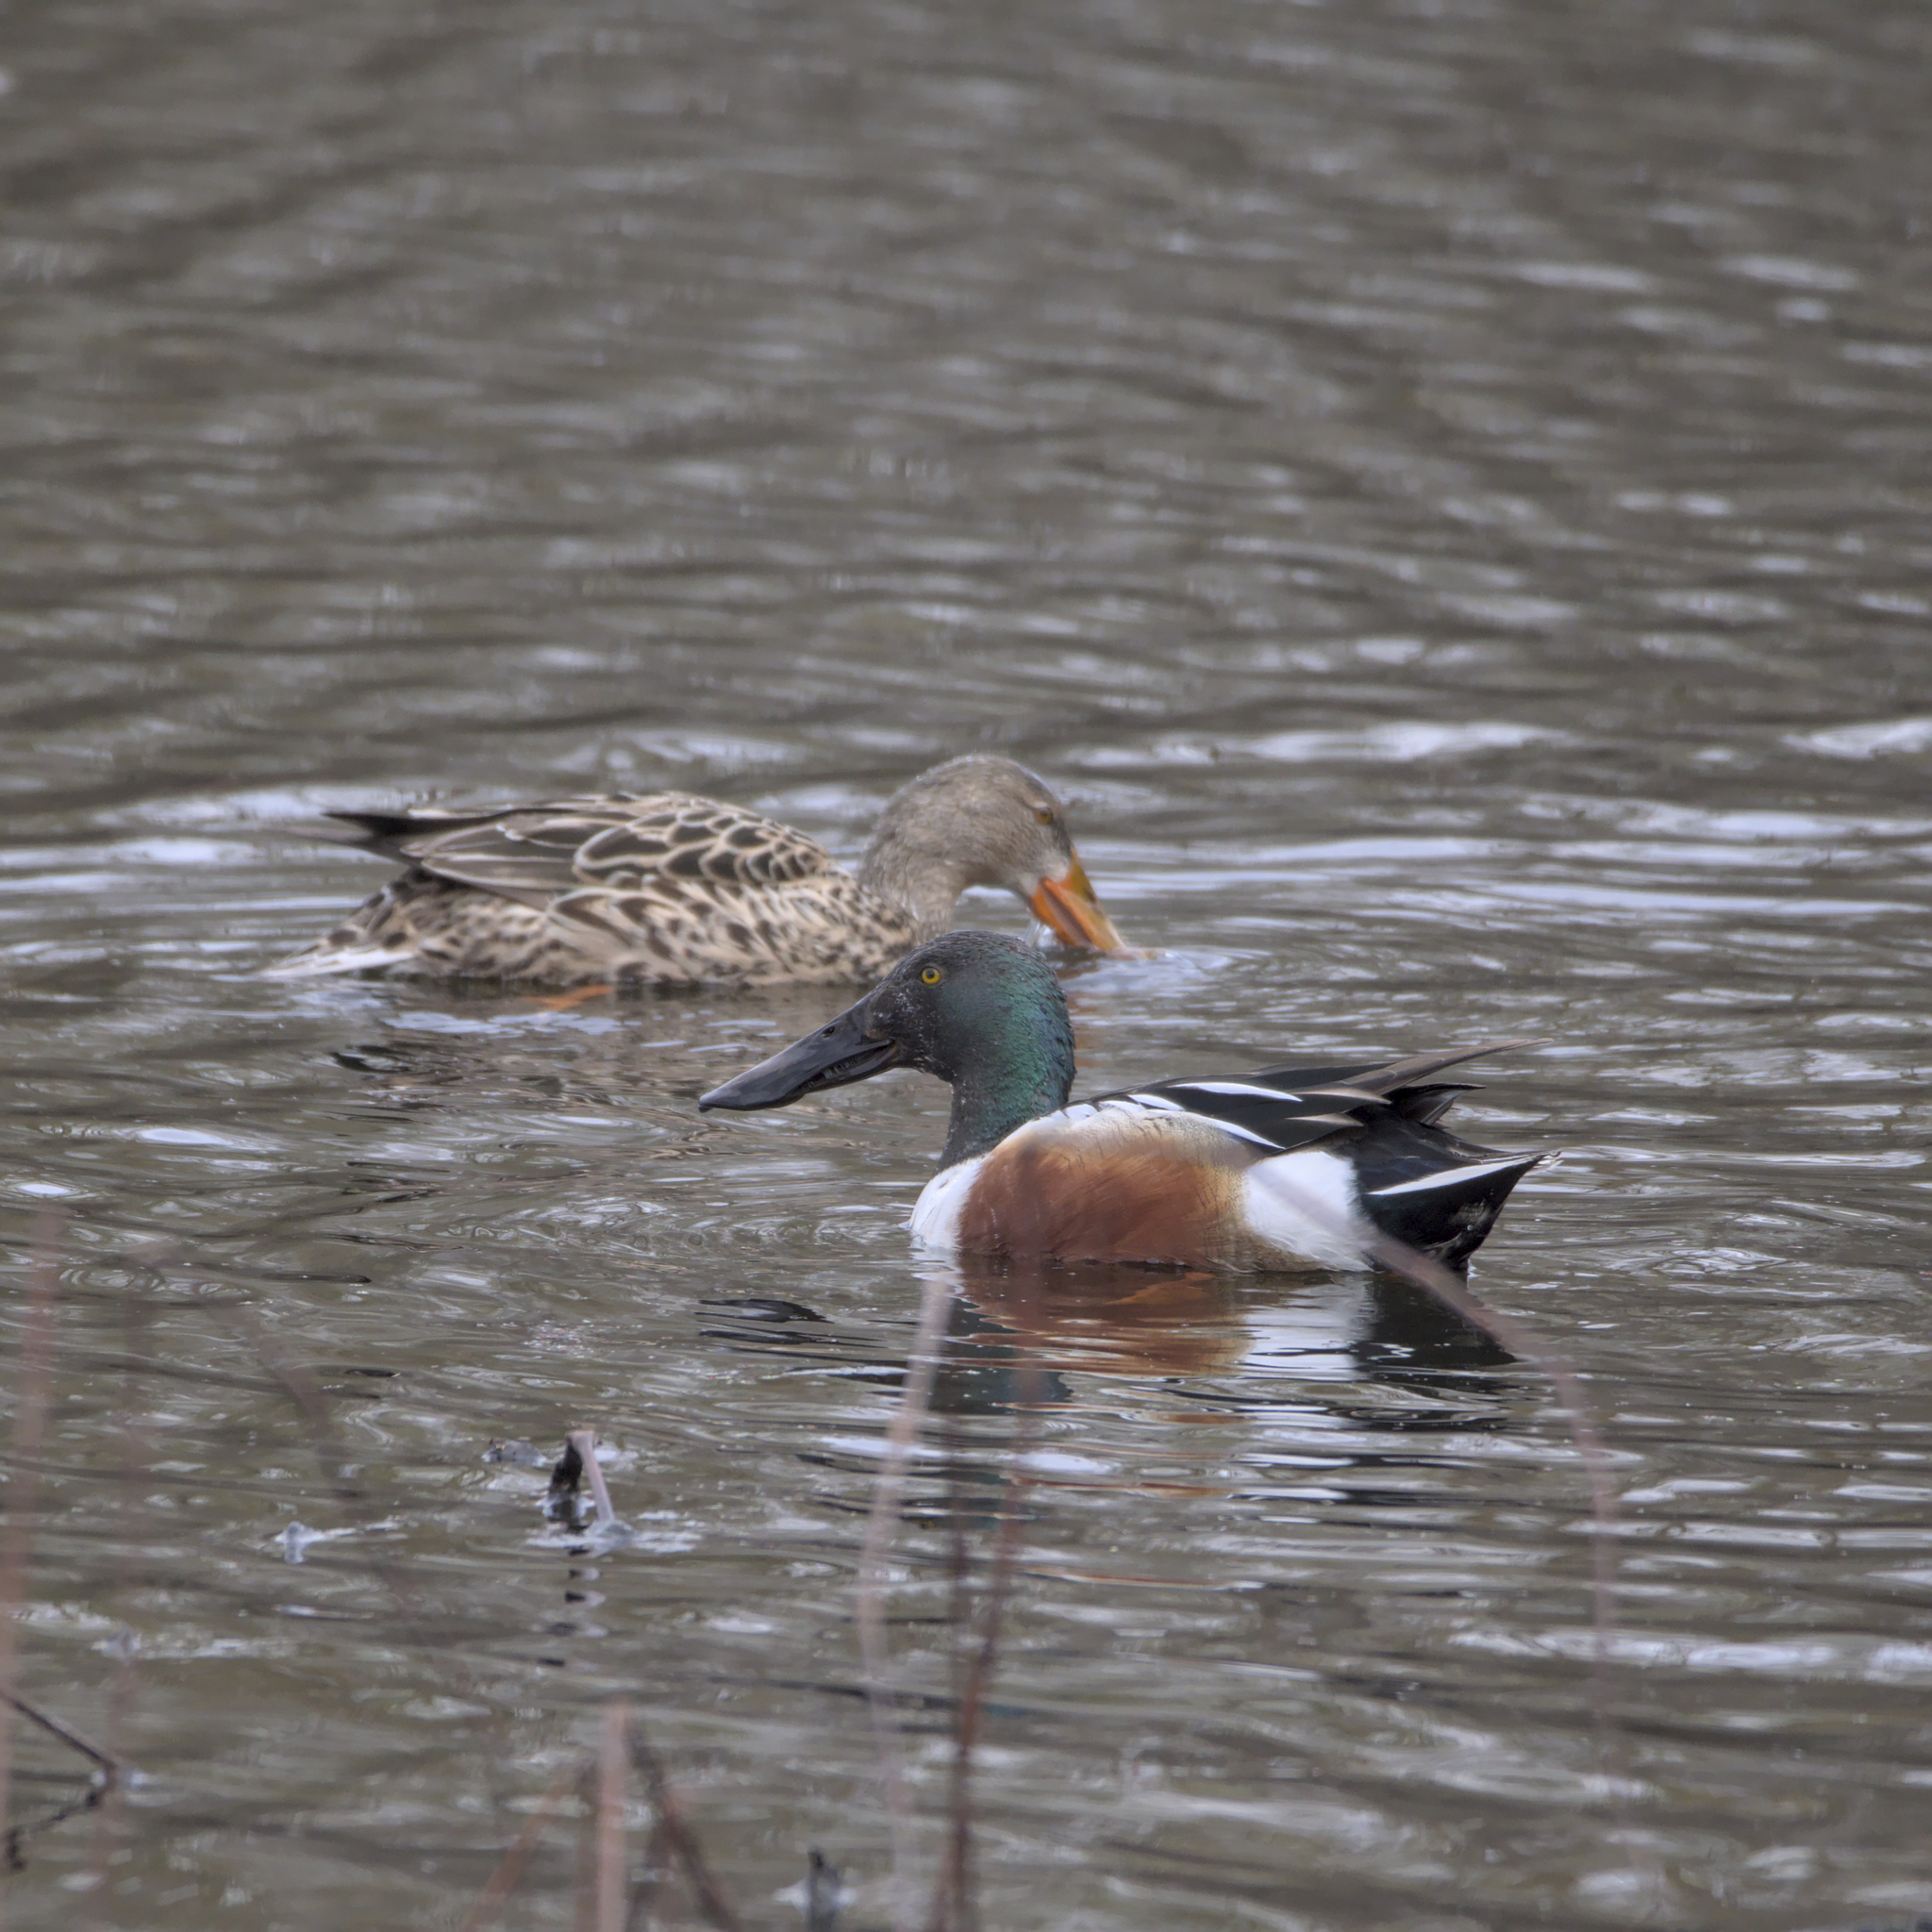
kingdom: Animalia
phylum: Chordata
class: Aves
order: Anseriformes
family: Anatidae
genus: Spatula
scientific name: Spatula clypeata
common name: Northern shoveler
